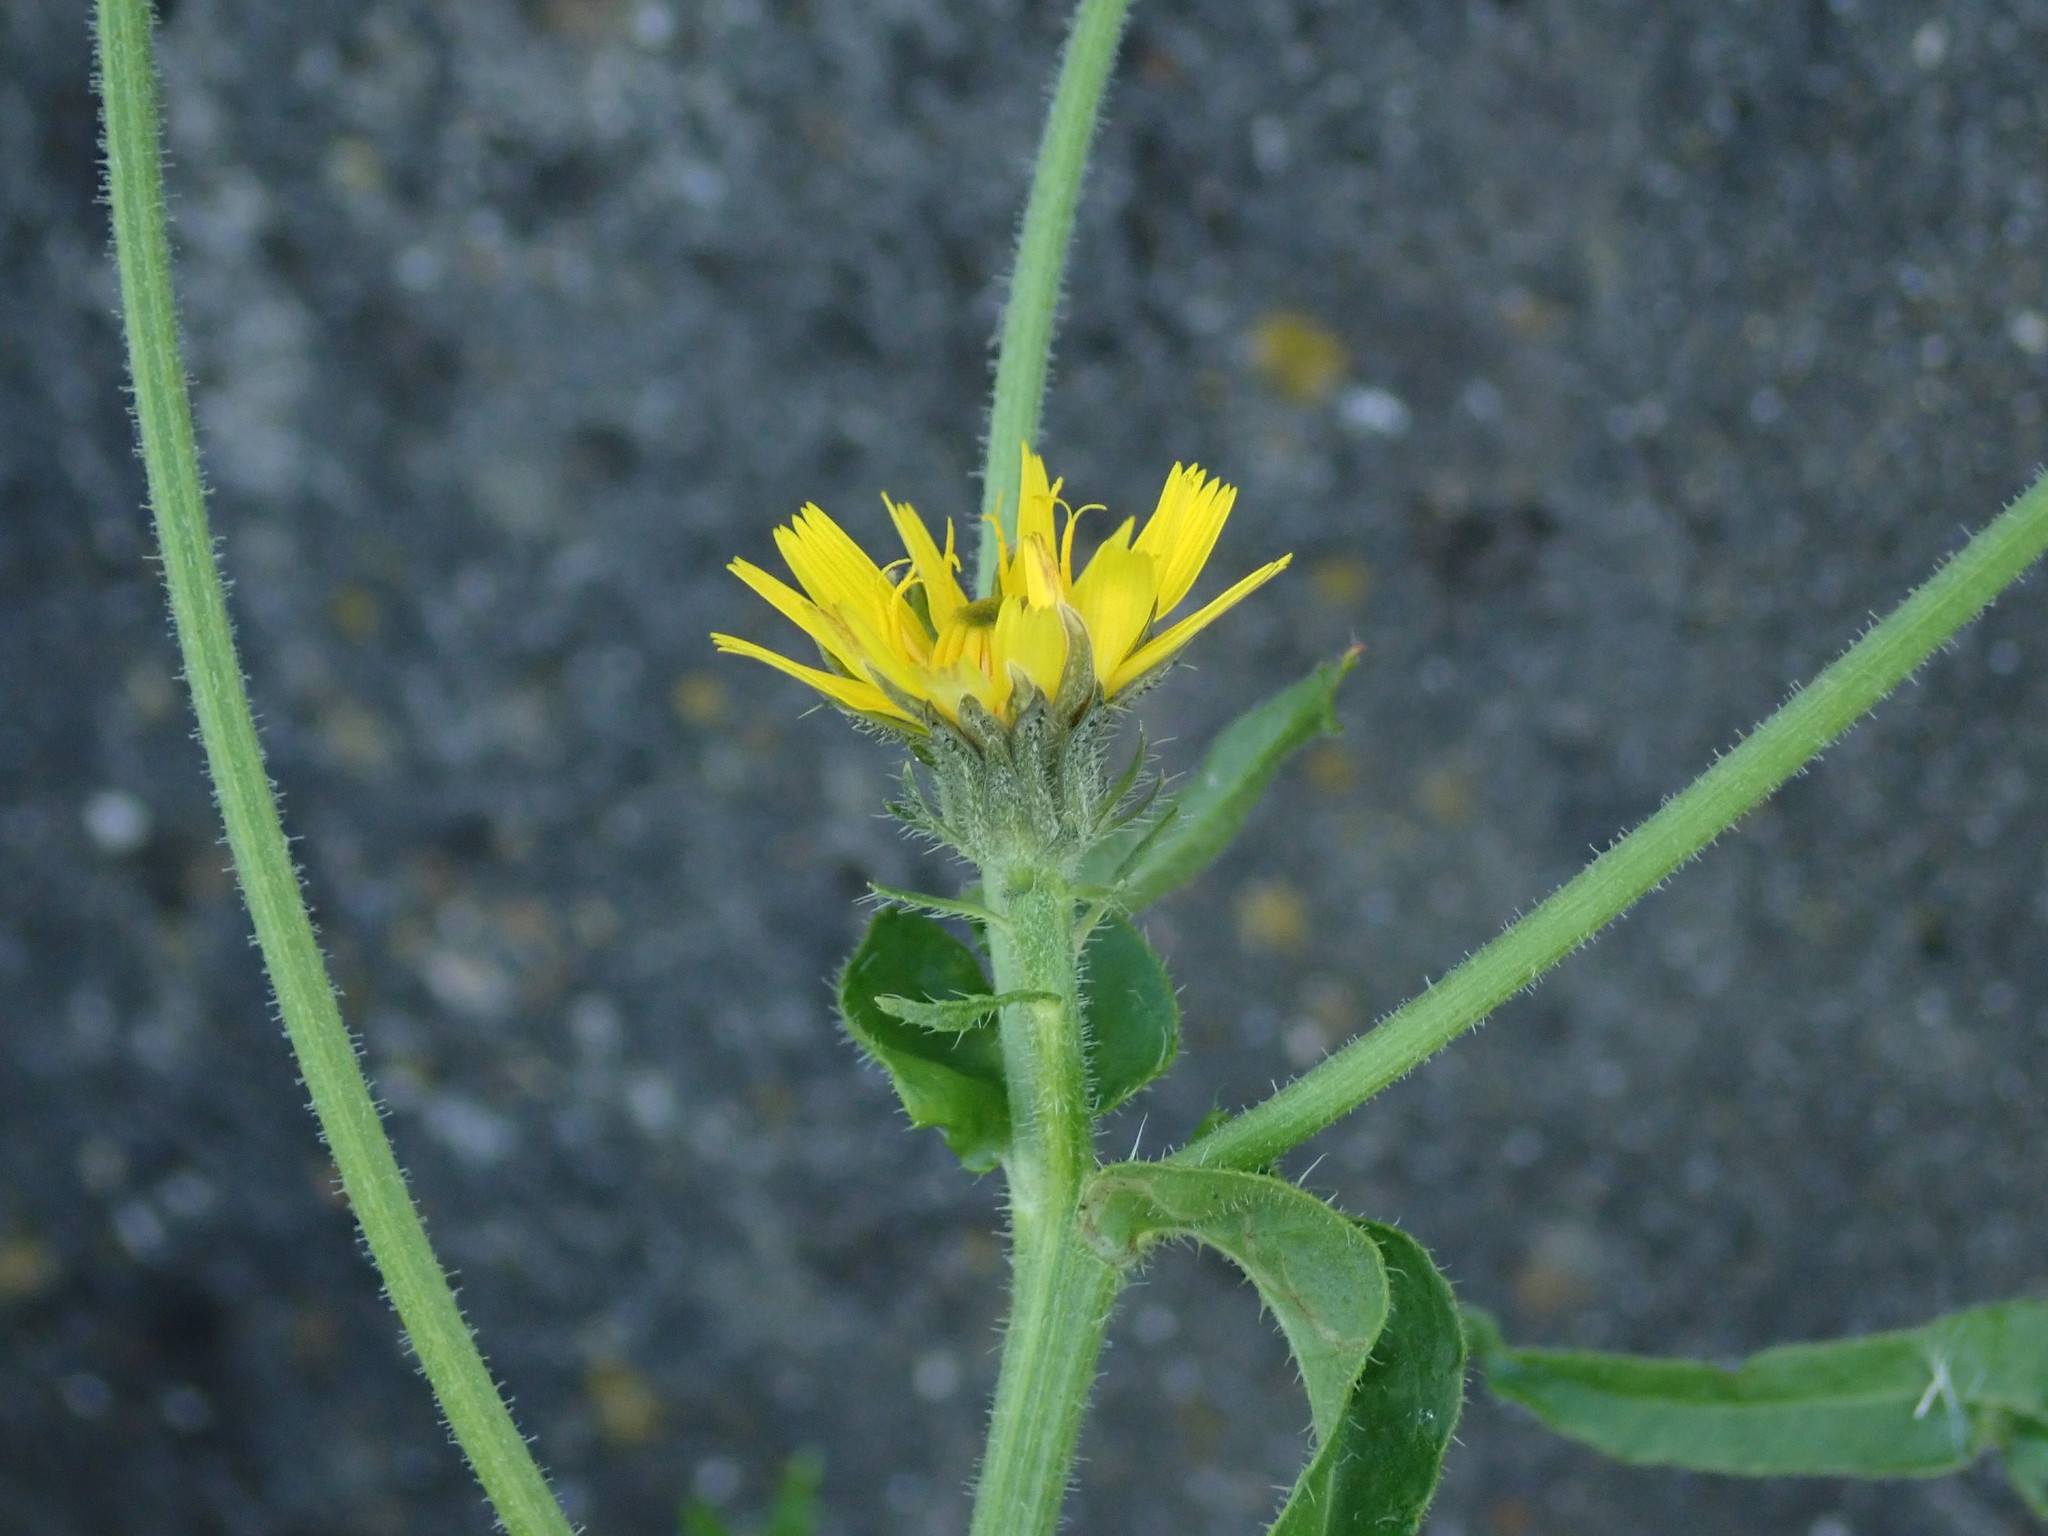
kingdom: Plantae
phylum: Tracheophyta
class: Magnoliopsida
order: Asterales
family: Asteraceae
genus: Picris
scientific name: Picris hieracioides
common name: Hawkweed oxtongue
